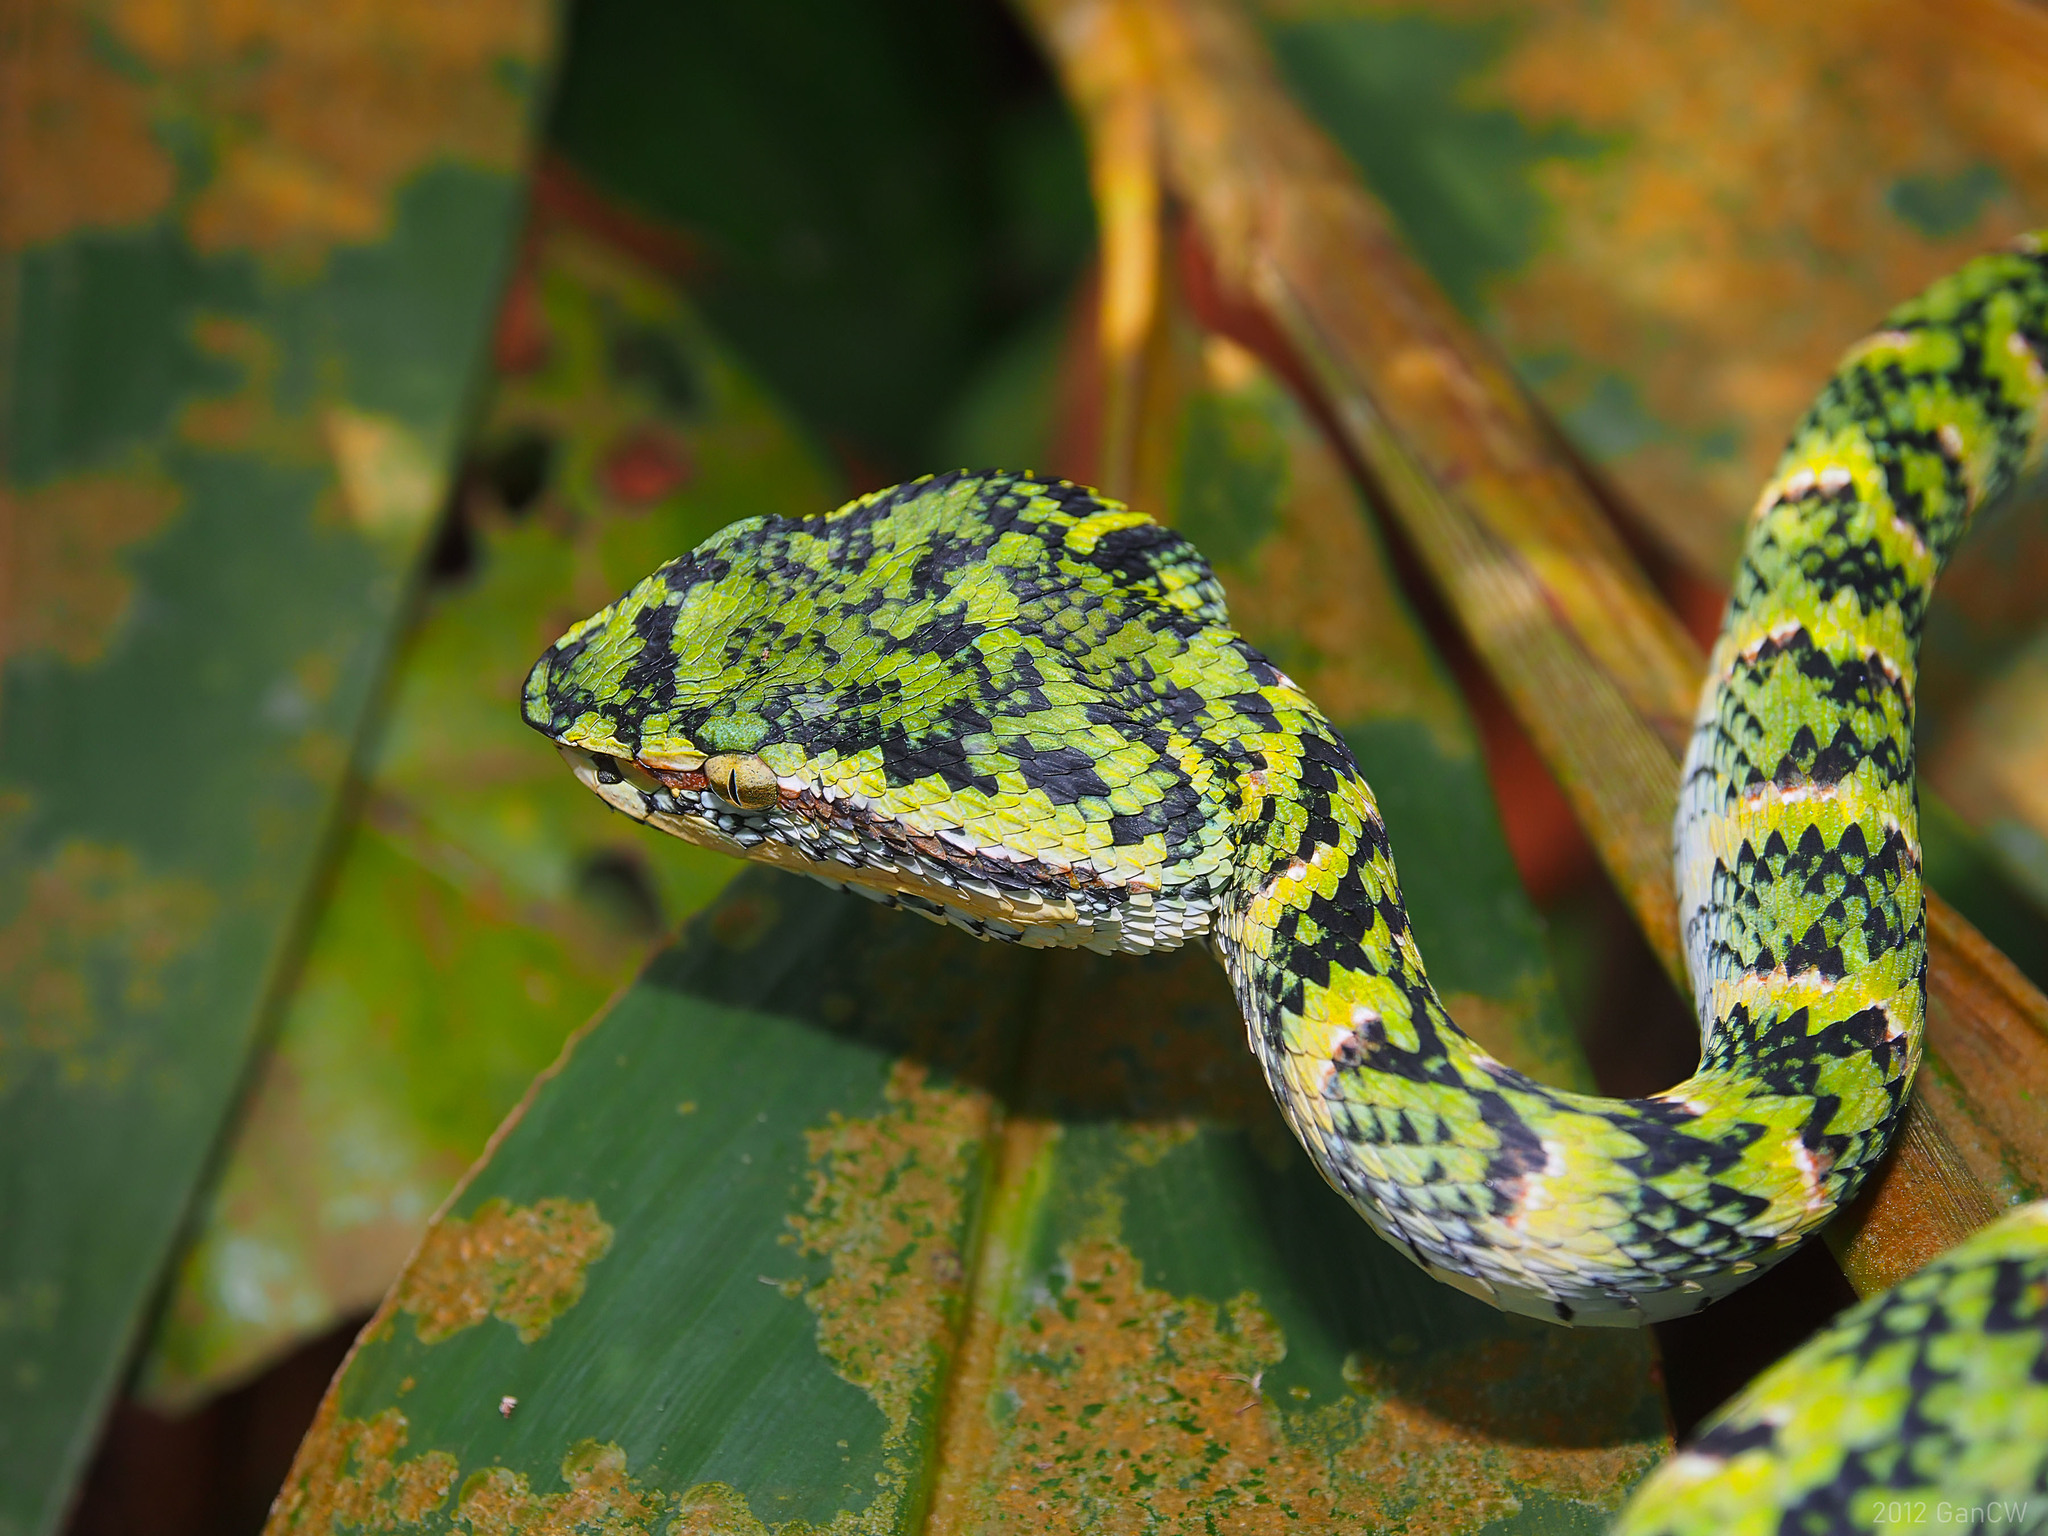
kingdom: Animalia
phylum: Chordata
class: Squamata
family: Viperidae
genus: Tropidolaemus
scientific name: Tropidolaemus wagleri
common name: Wagler's palm viper
